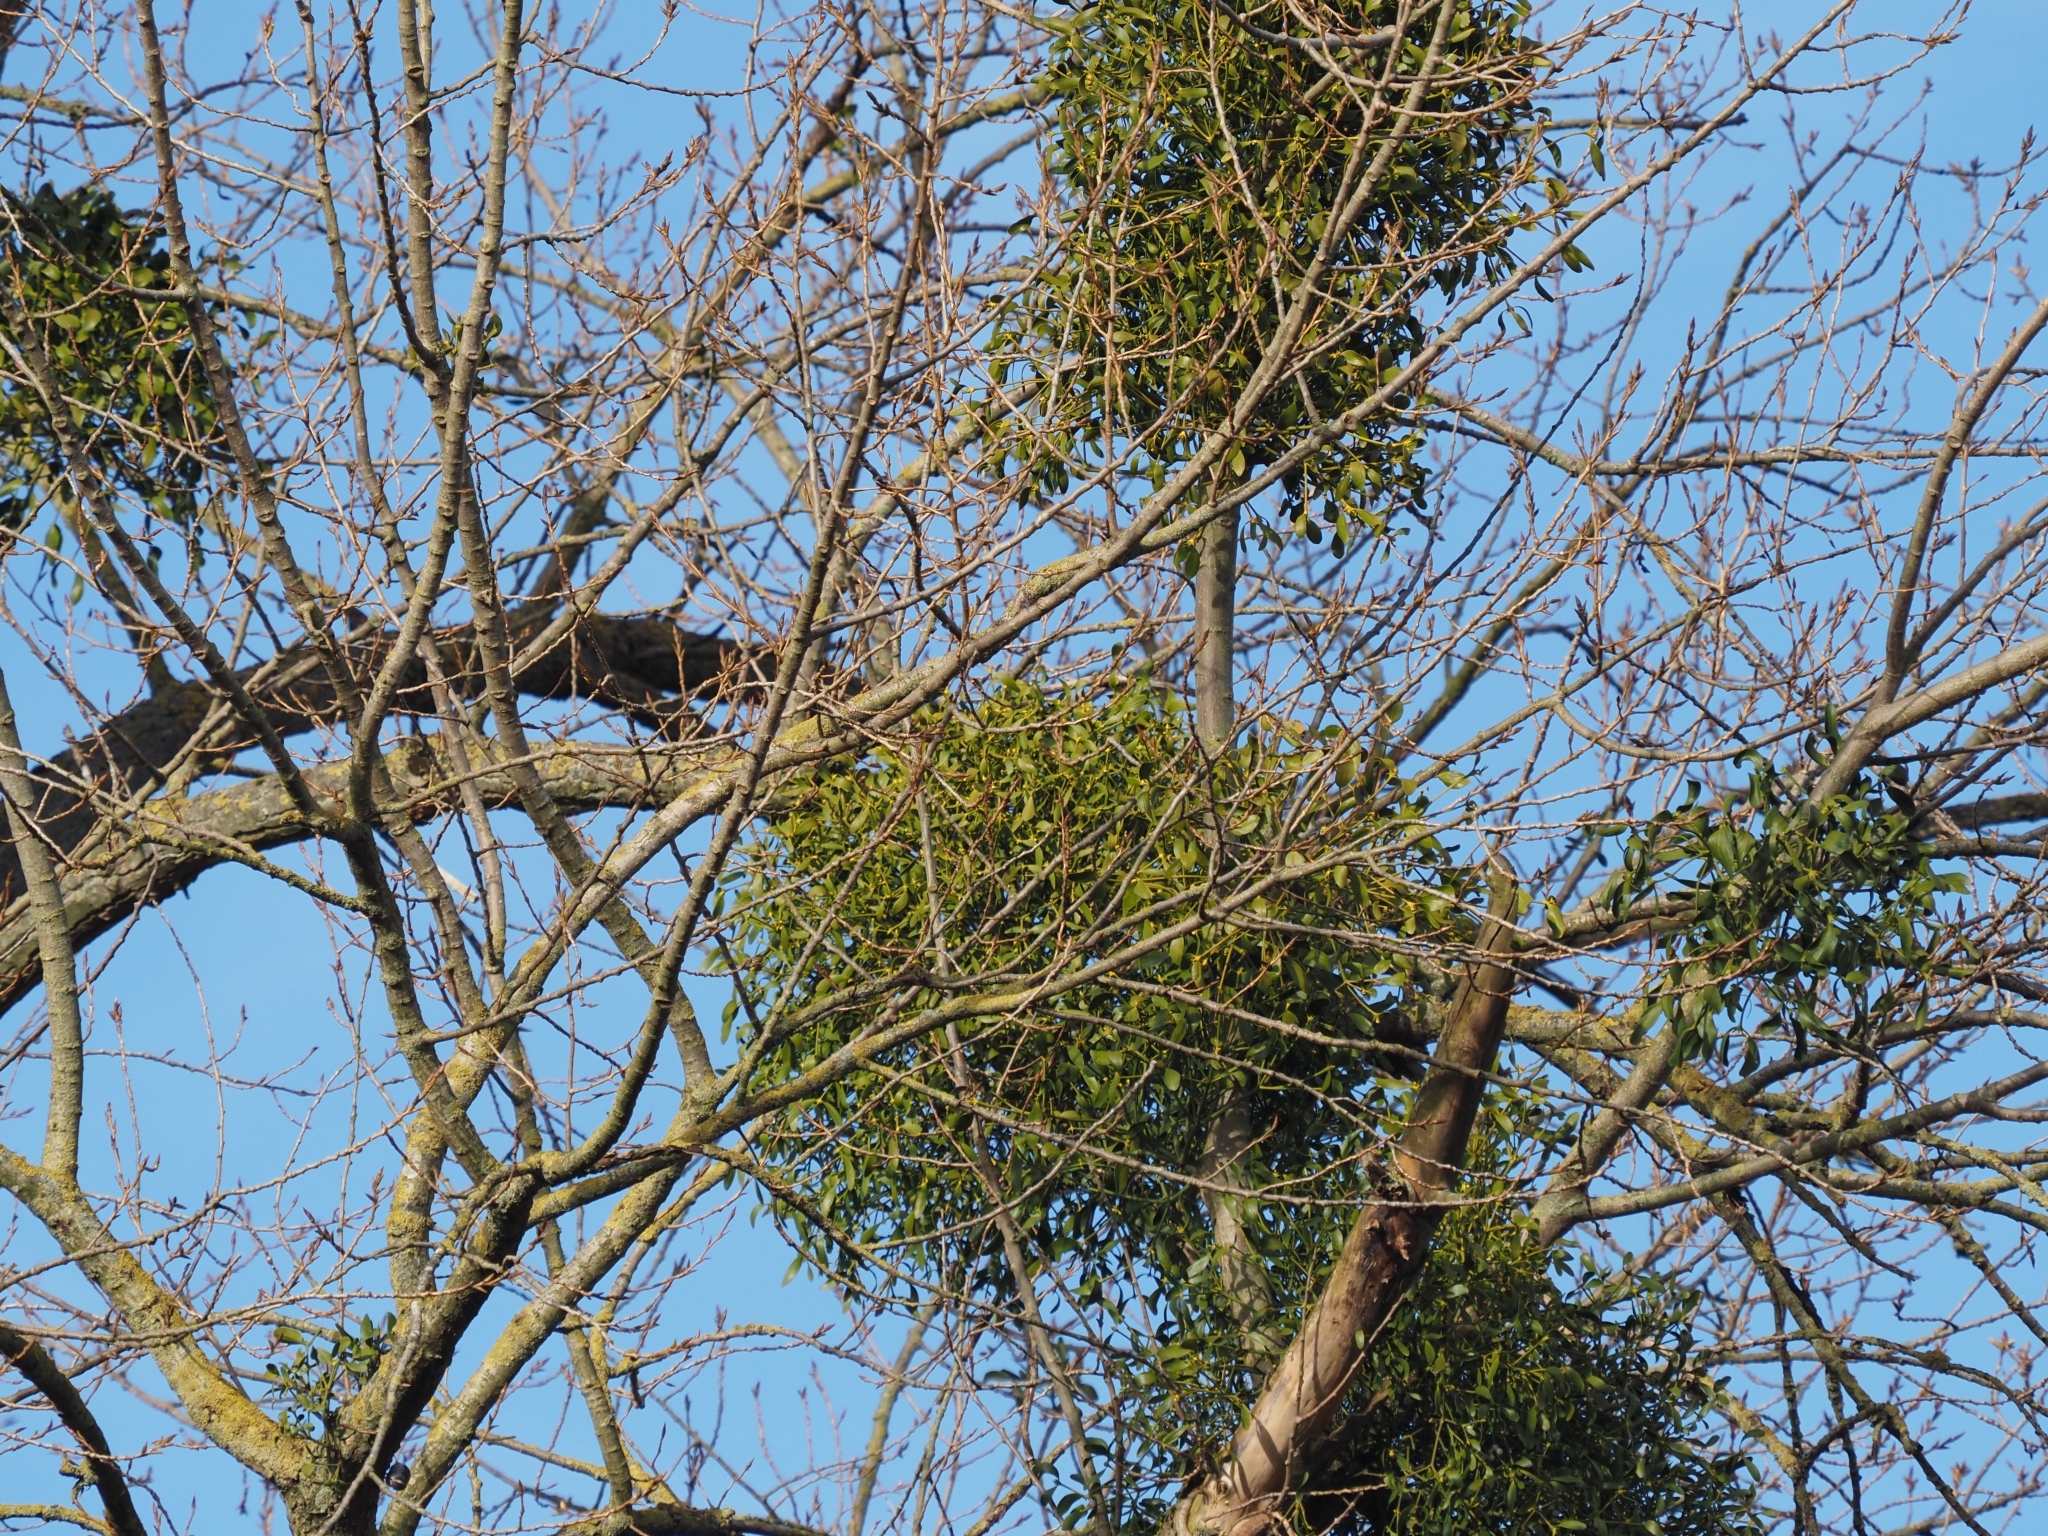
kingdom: Plantae
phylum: Tracheophyta
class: Magnoliopsida
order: Santalales
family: Viscaceae
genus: Viscum
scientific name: Viscum album
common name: Mistletoe
